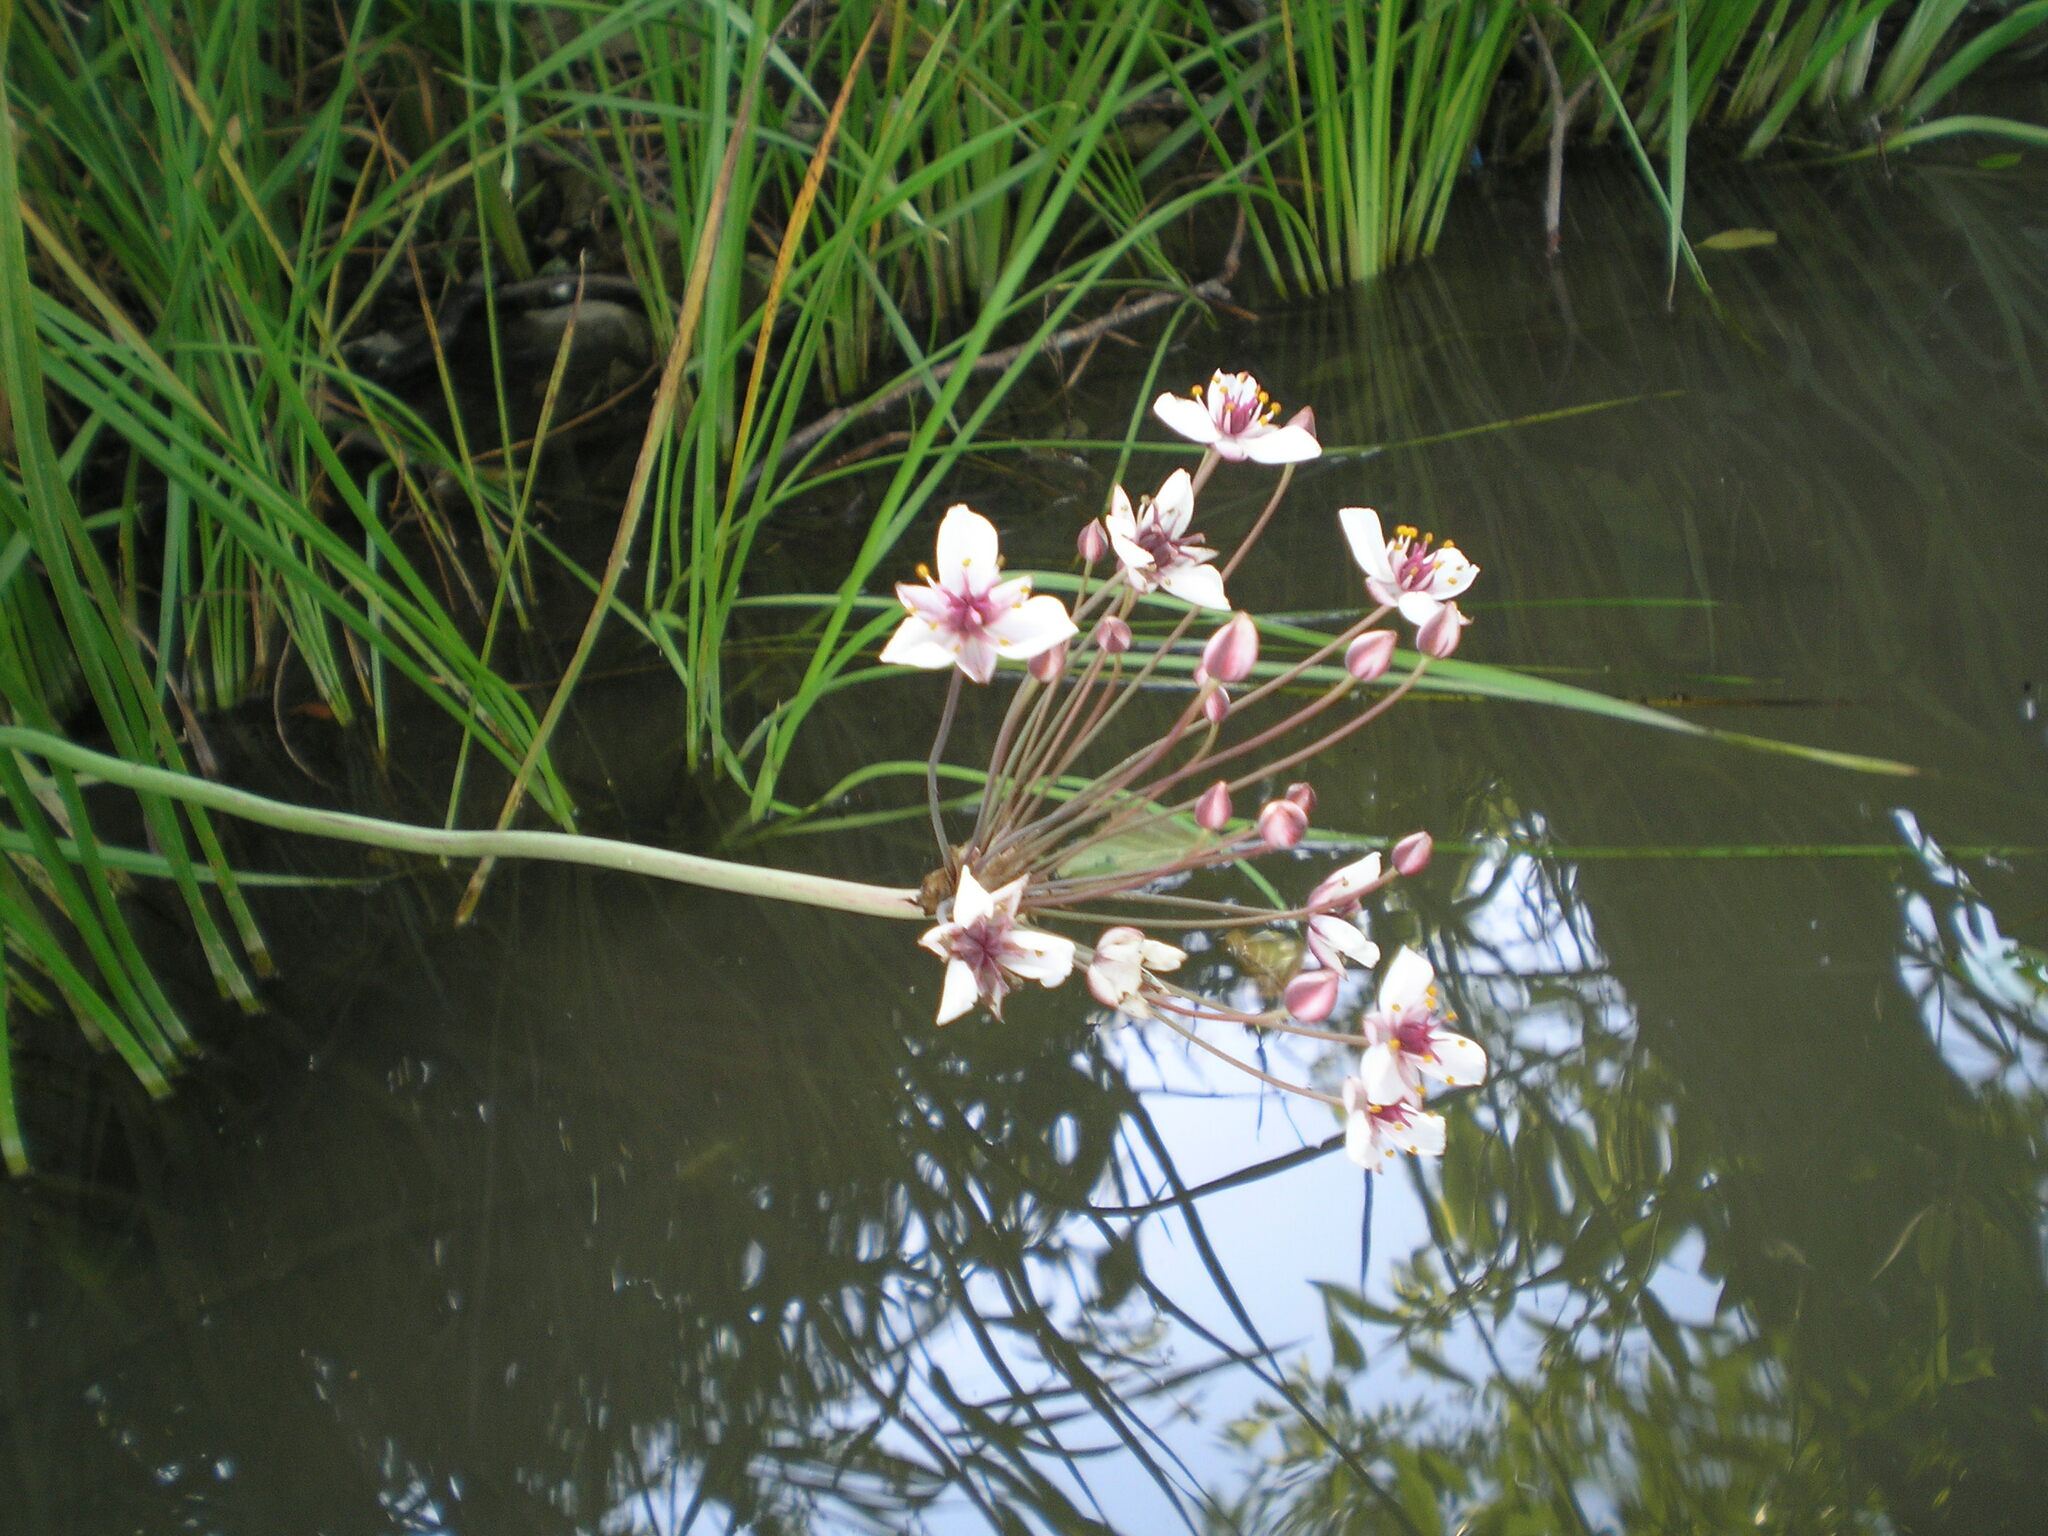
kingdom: Plantae
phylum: Tracheophyta
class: Liliopsida
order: Alismatales
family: Butomaceae
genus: Butomus
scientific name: Butomus umbellatus
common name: Flowering-rush
